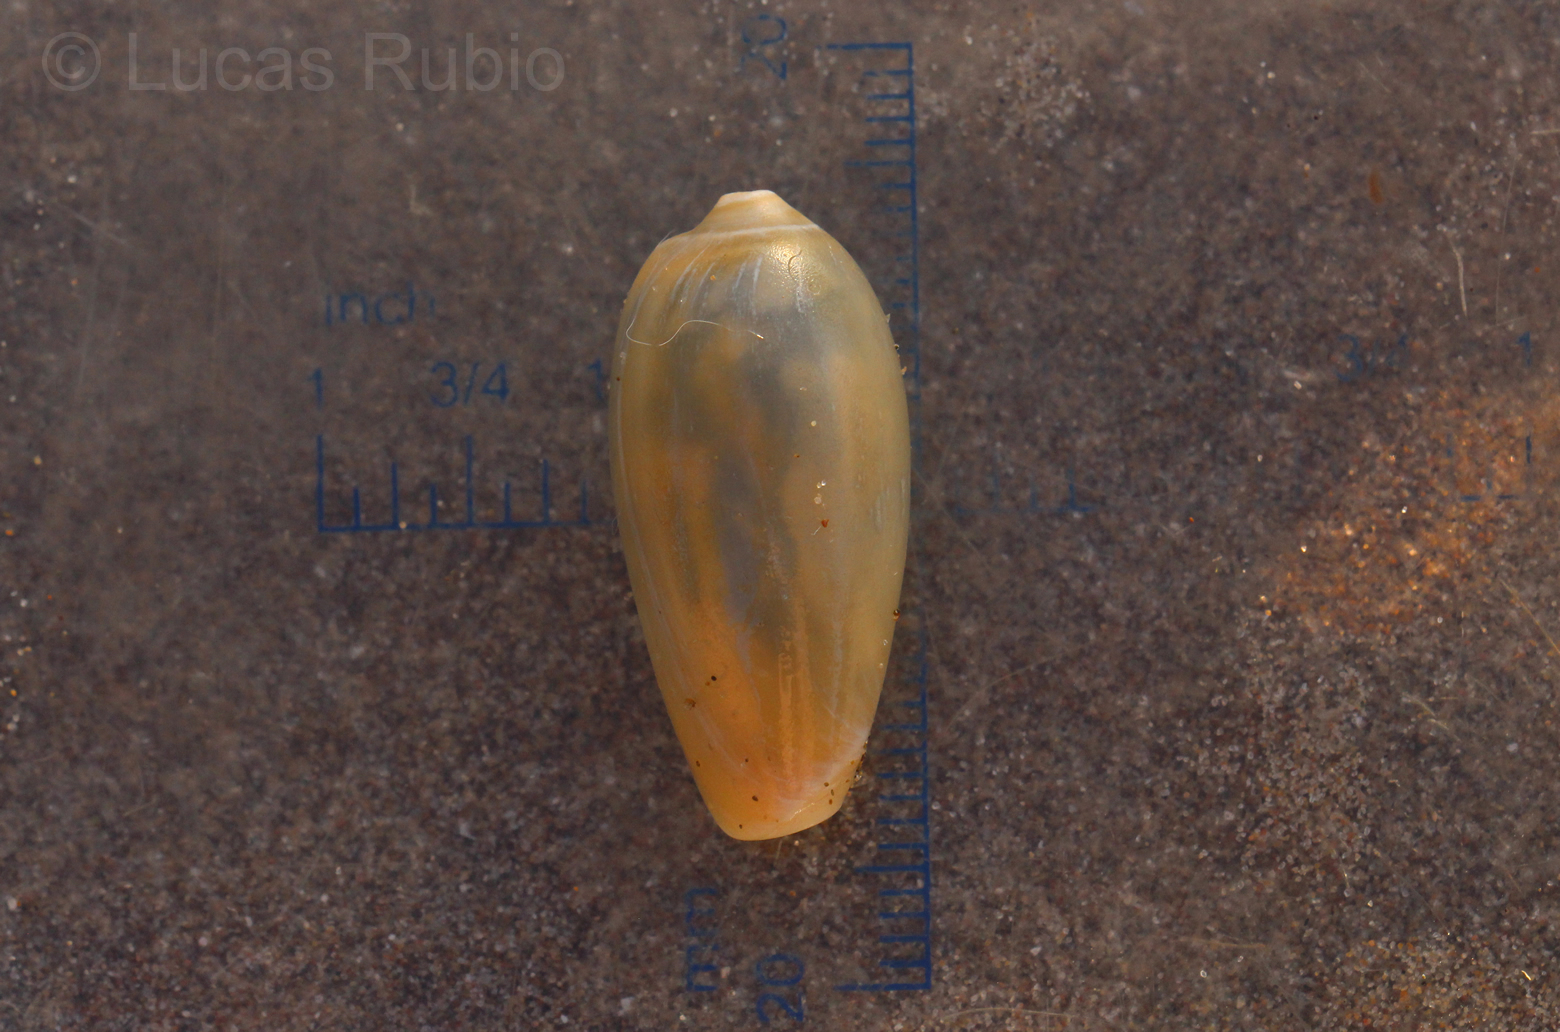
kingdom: Animalia
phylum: Mollusca
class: Gastropoda
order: Neogastropoda
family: Marginellidae
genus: Prunum
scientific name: Prunum martini
